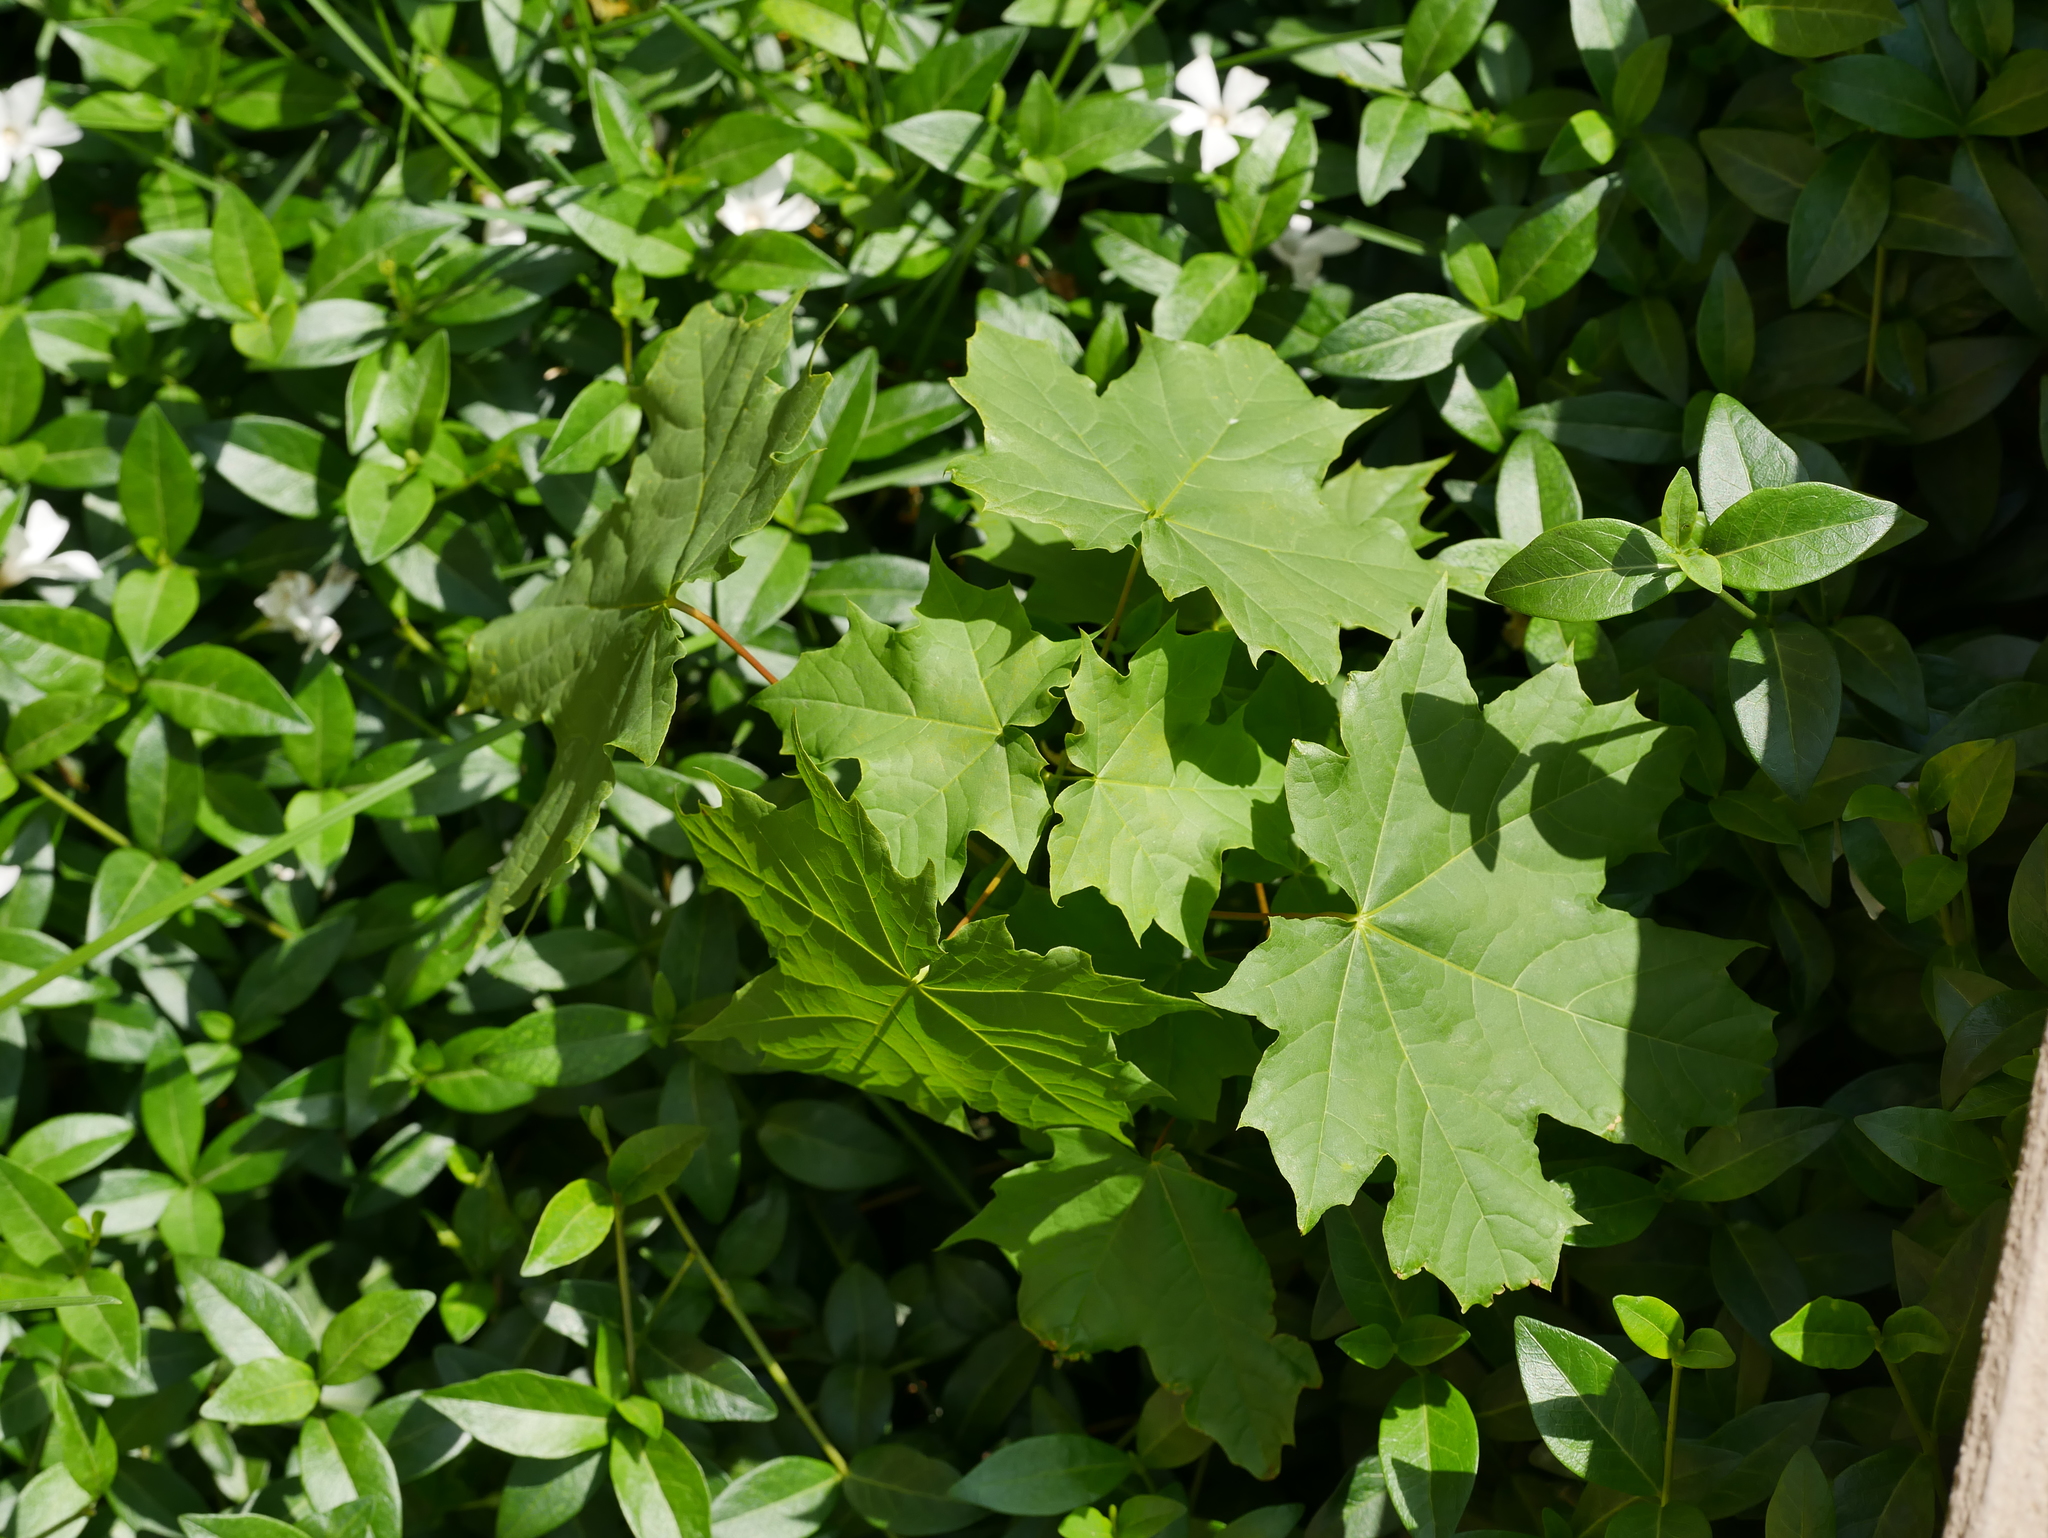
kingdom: Plantae
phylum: Tracheophyta
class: Magnoliopsida
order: Sapindales
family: Sapindaceae
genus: Acer
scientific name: Acer platanoides
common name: Norway maple
